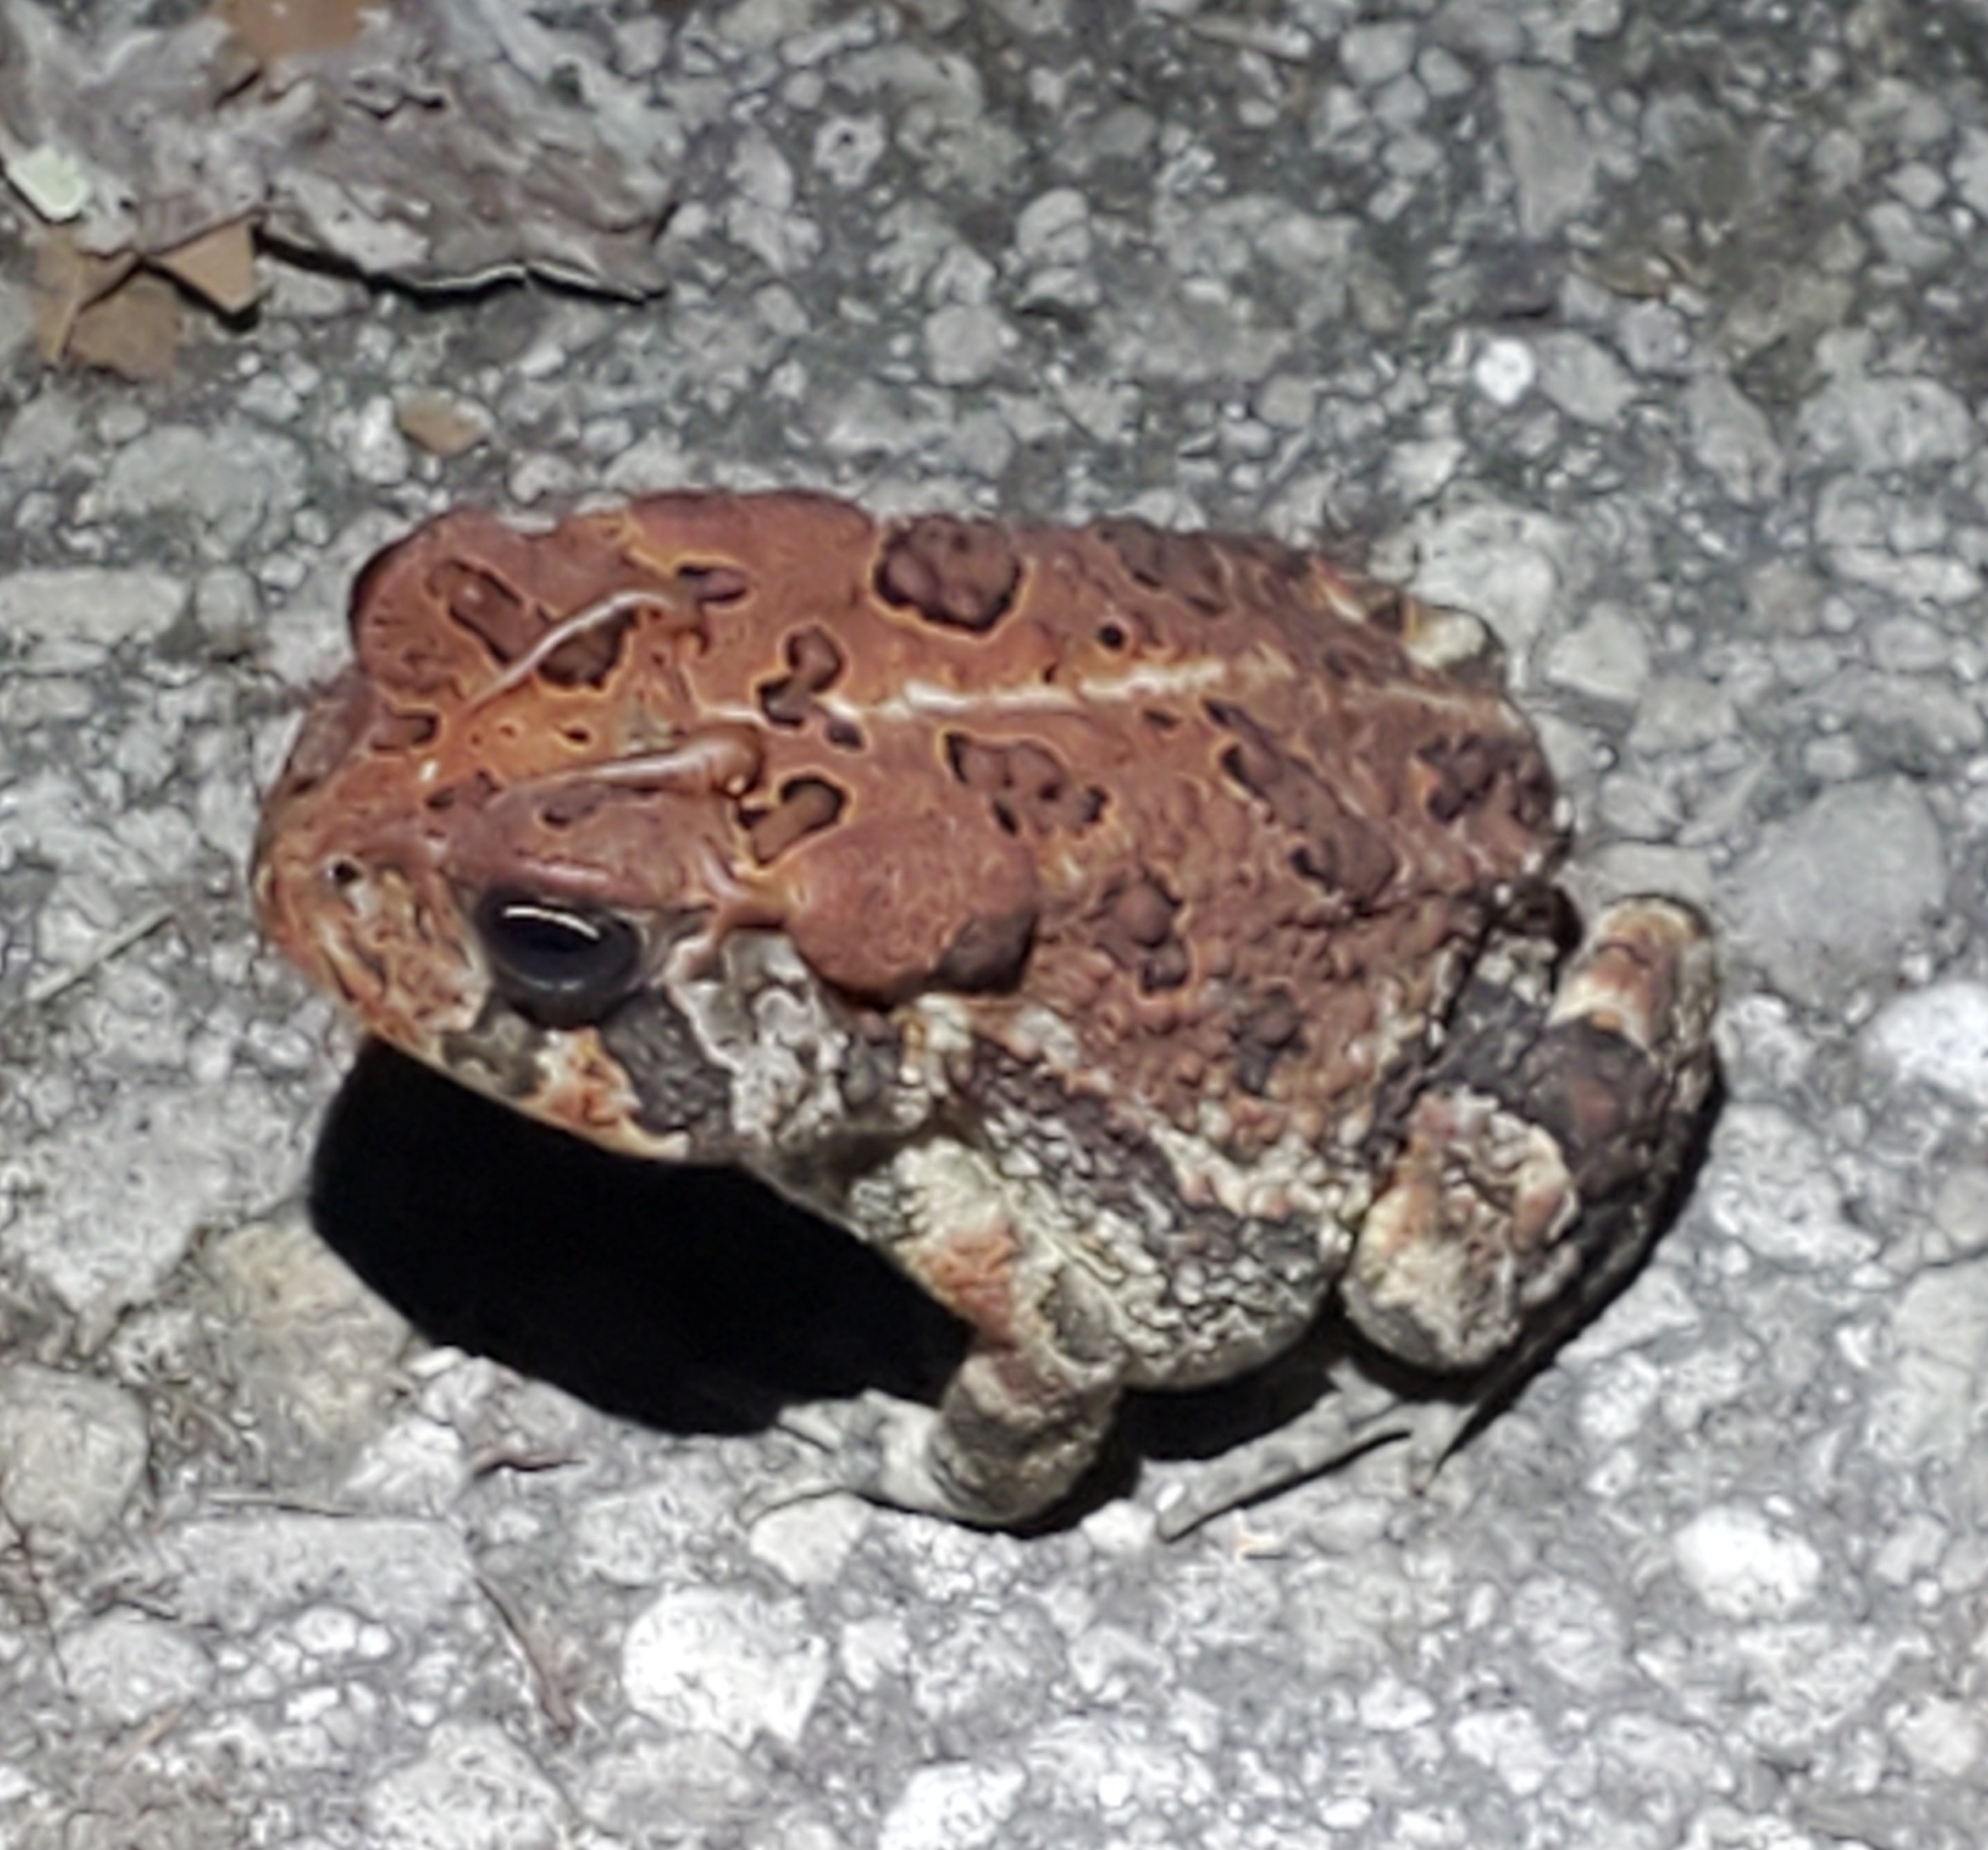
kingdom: Animalia
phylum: Chordata
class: Amphibia
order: Anura
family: Bufonidae
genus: Anaxyrus
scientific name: Anaxyrus terrestris
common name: Southern toad
